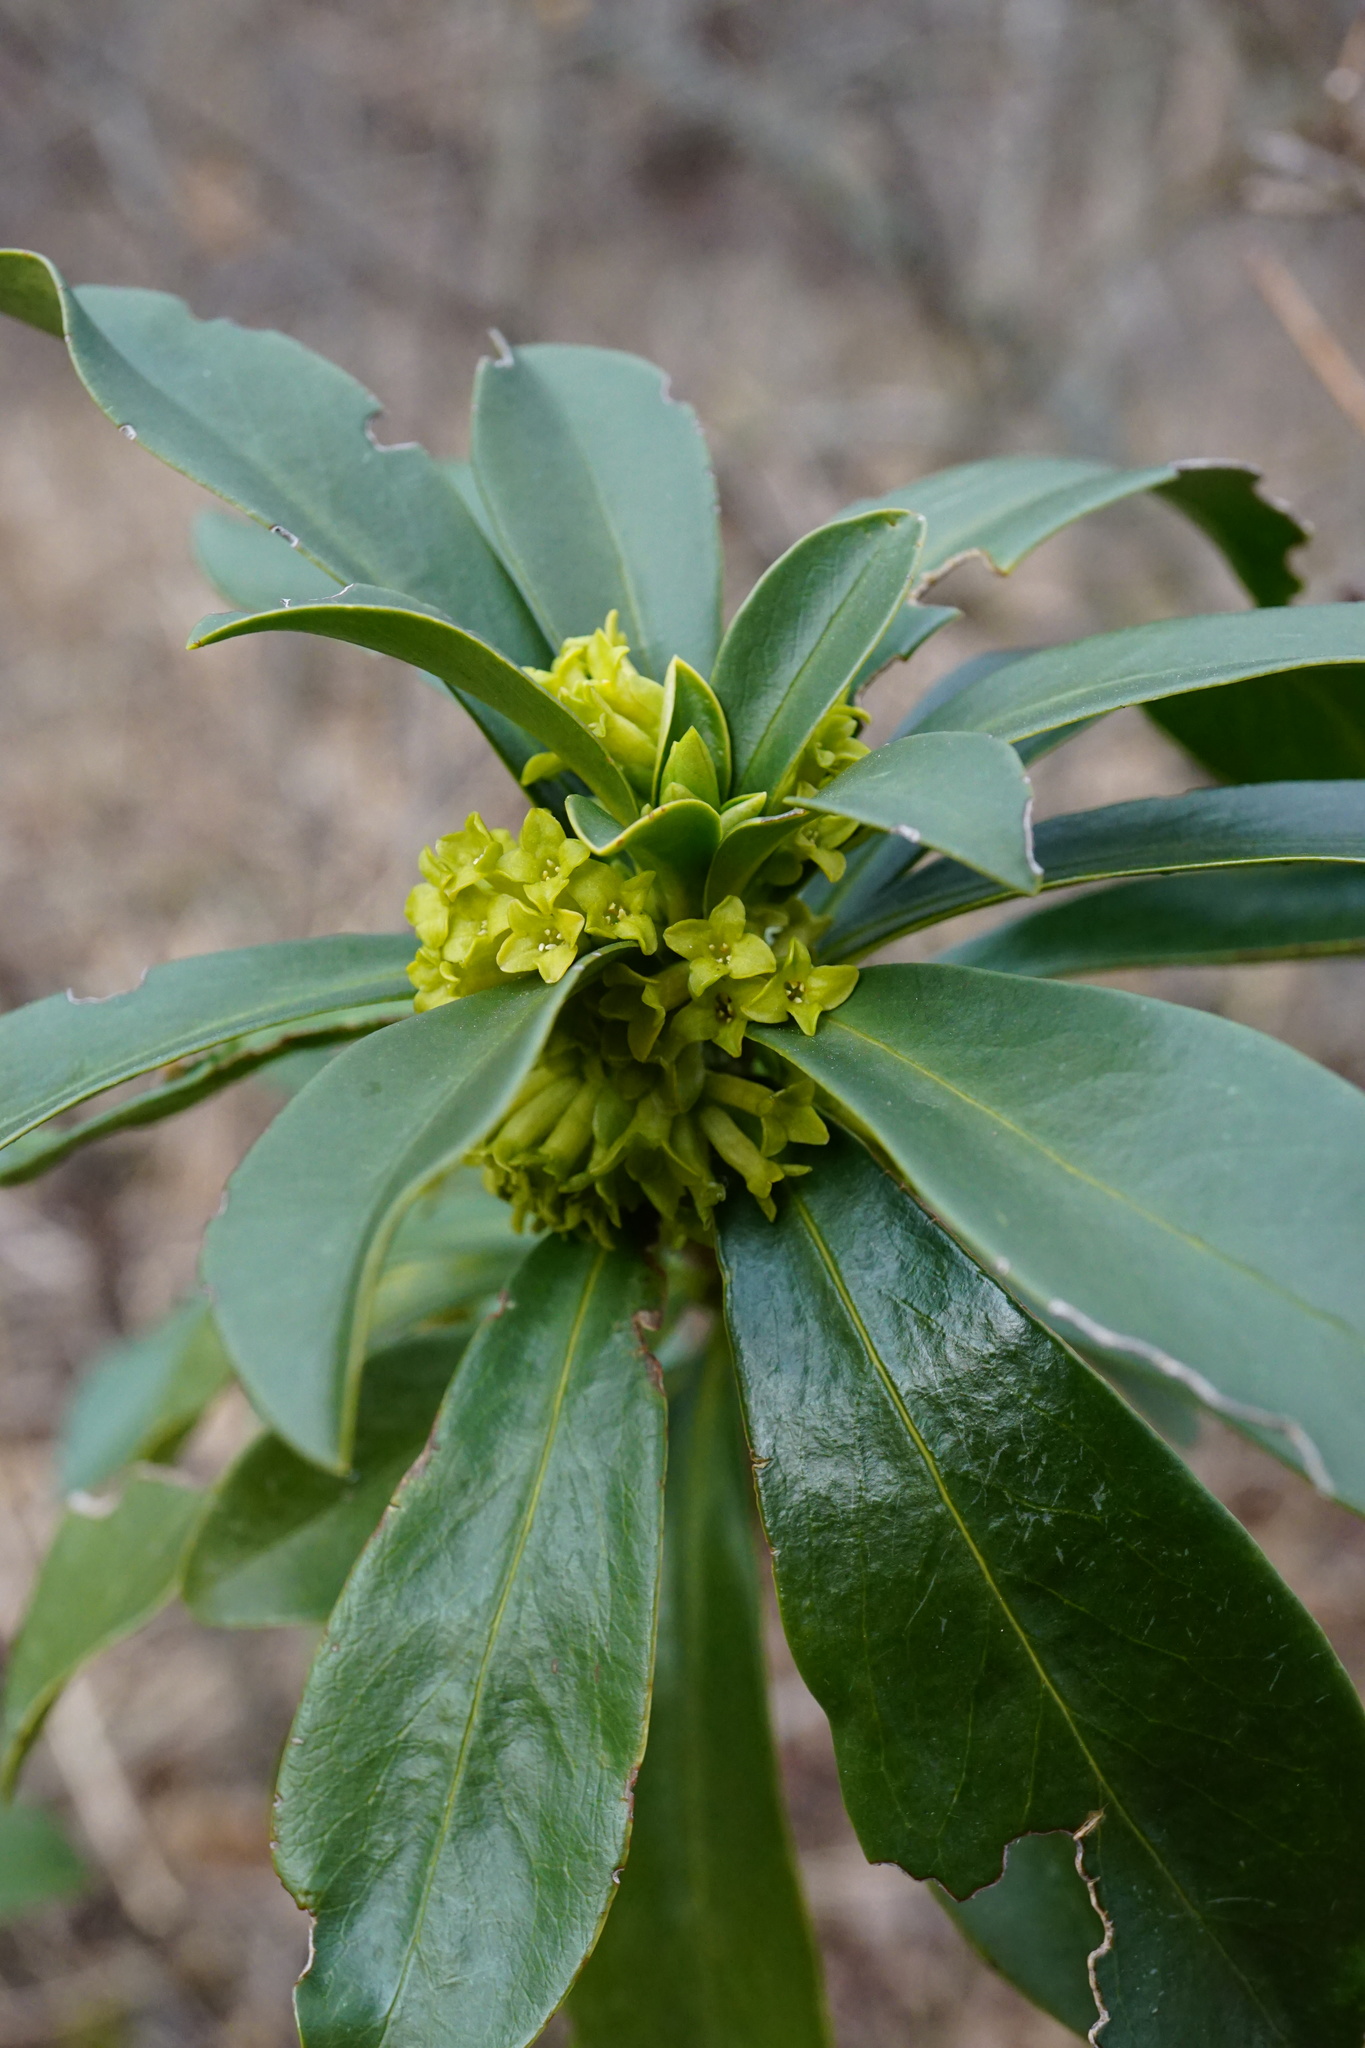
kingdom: Plantae
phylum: Tracheophyta
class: Magnoliopsida
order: Malvales
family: Thymelaeaceae
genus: Daphne
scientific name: Daphne laureola
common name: Spurge-laurel
